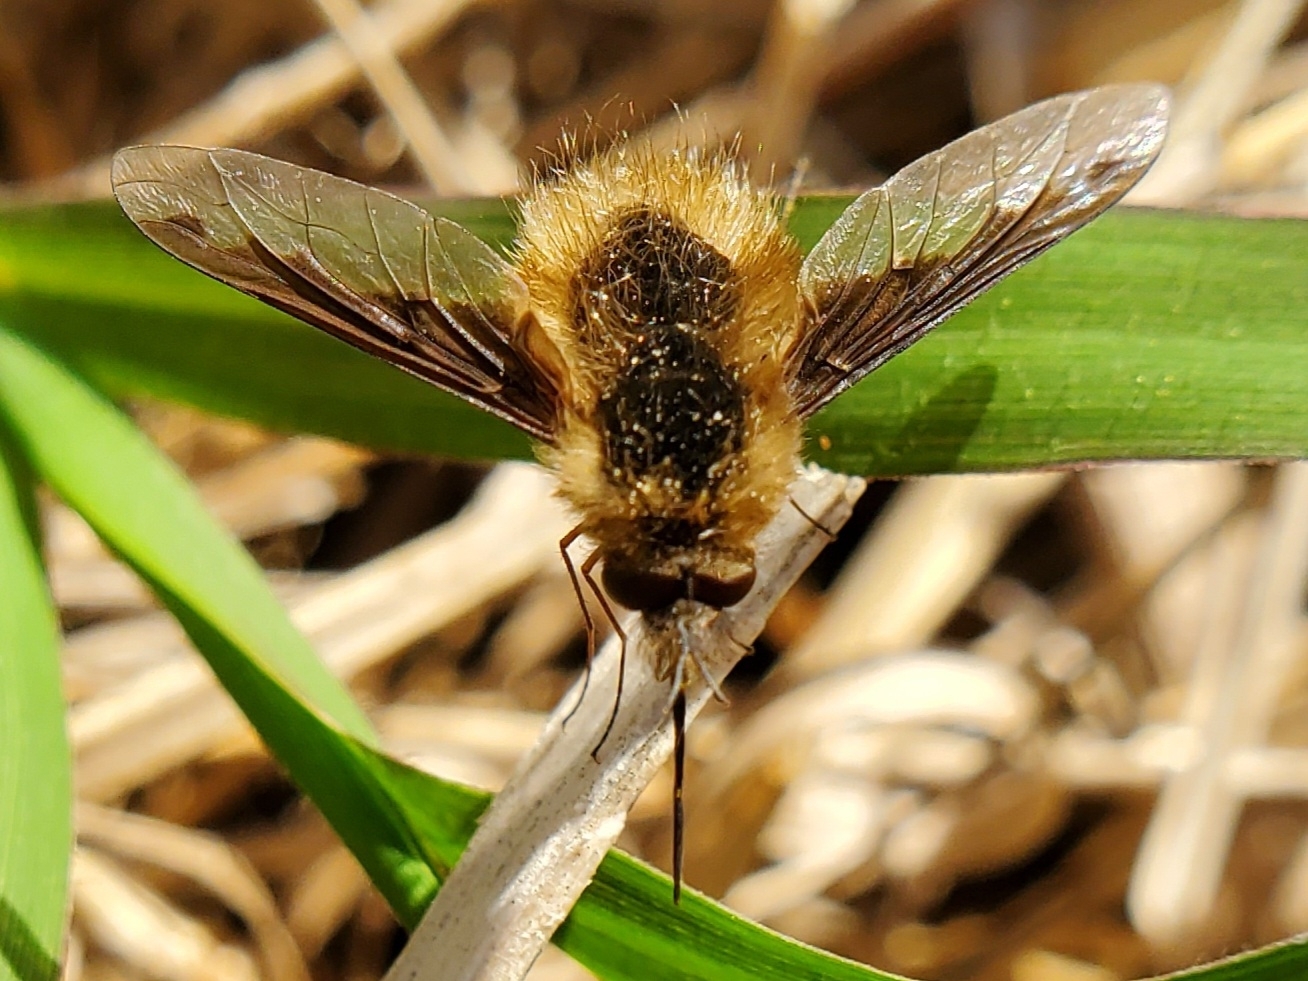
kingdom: Animalia
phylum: Arthropoda
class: Insecta
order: Diptera
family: Bombyliidae
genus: Bombylius
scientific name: Bombylius major
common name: Bee fly
